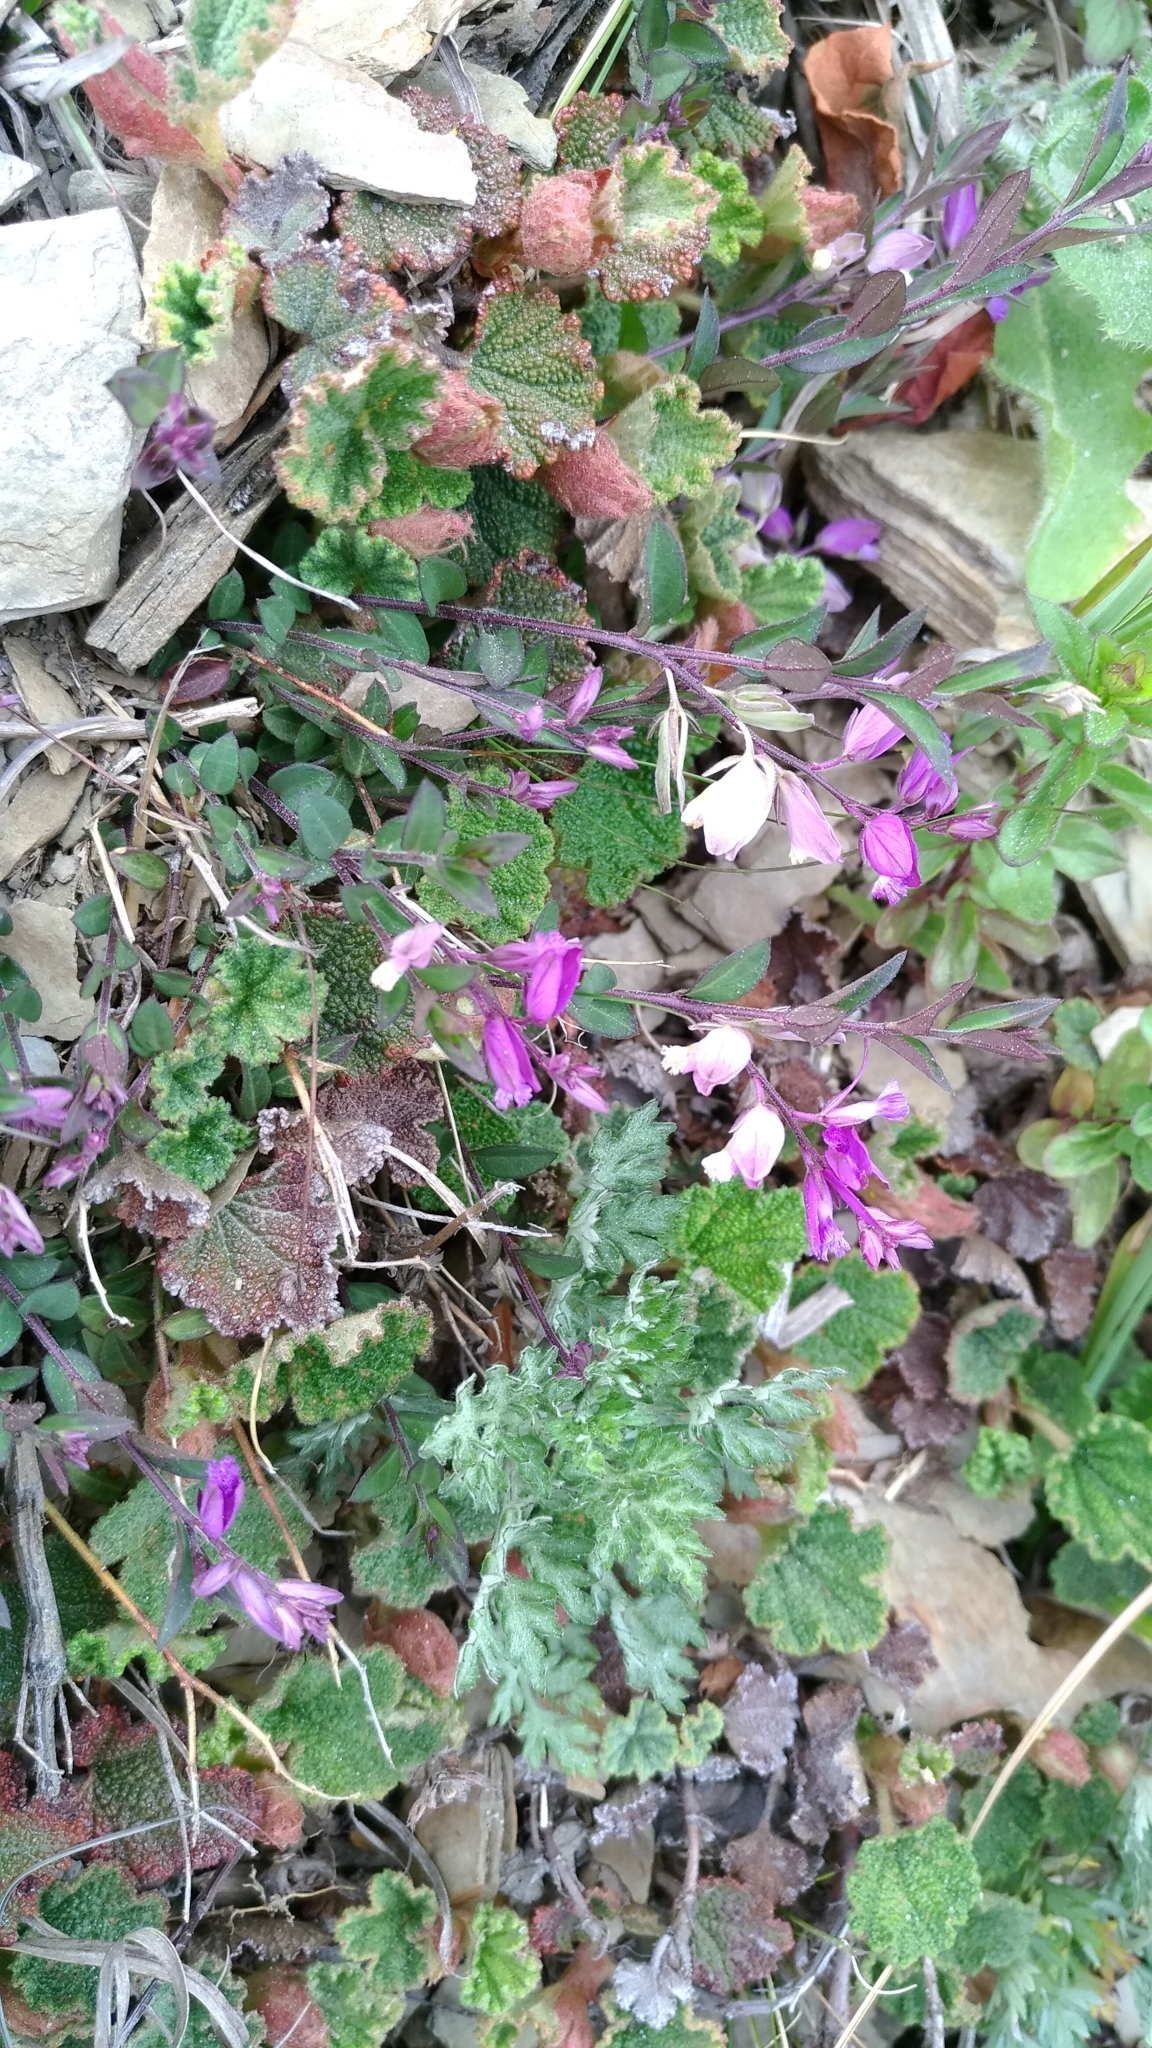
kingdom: Plantae
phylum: Tracheophyta
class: Magnoliopsida
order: Fabales
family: Polygalaceae
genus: Polygala
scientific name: Polygala japonica
